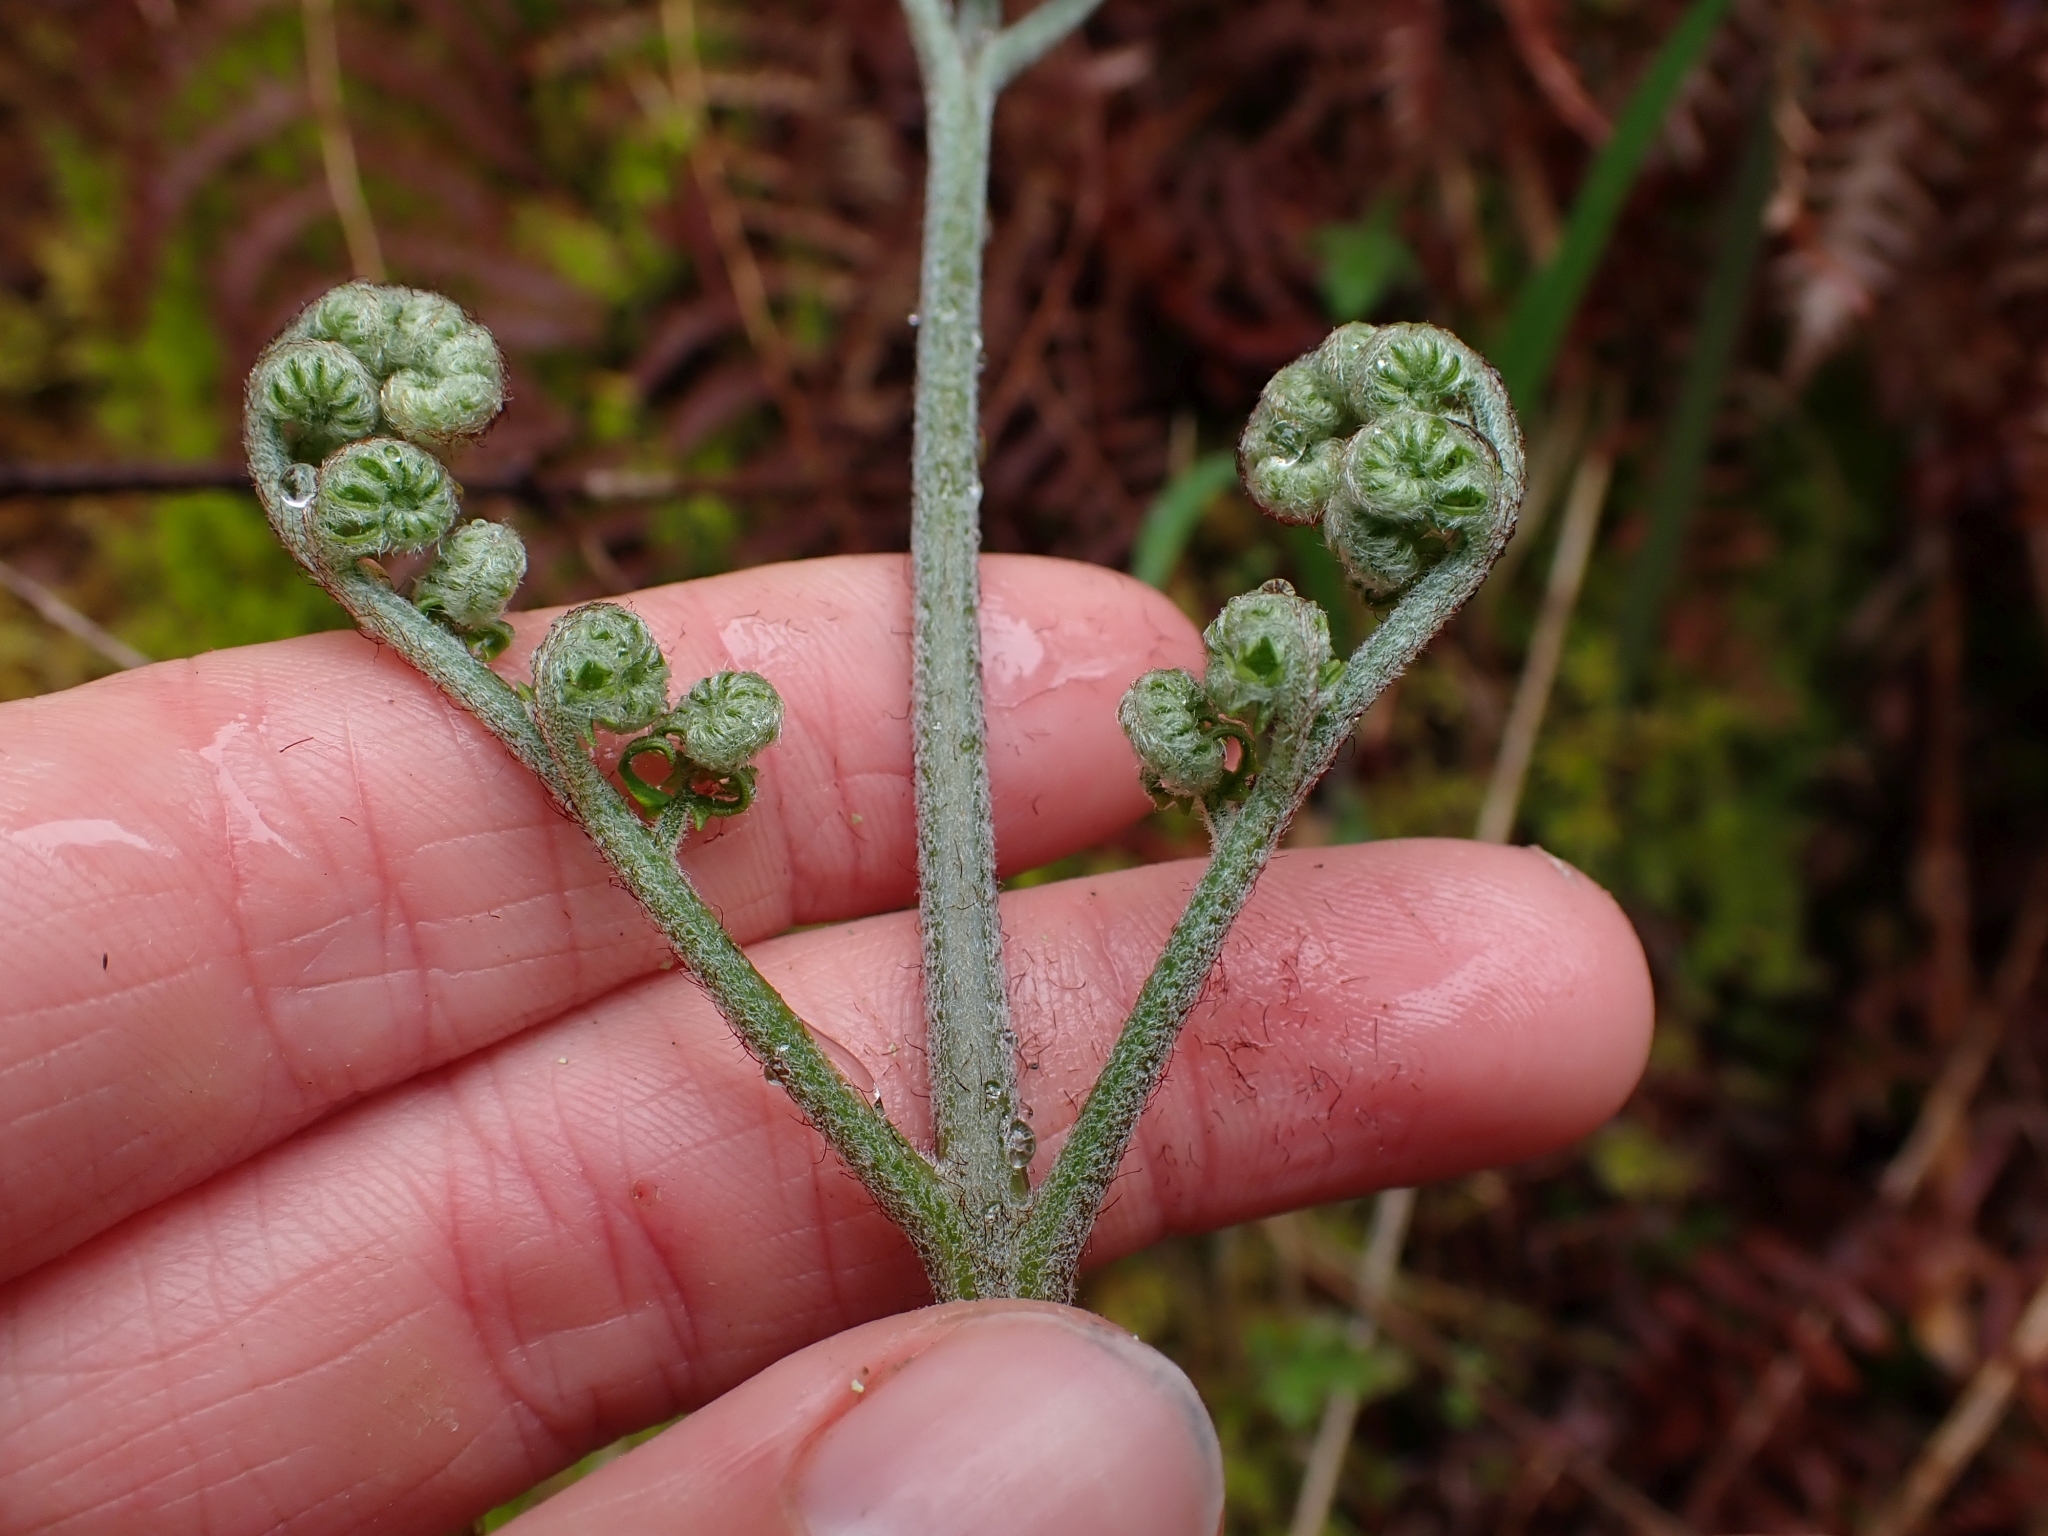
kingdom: Plantae
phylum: Tracheophyta
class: Polypodiopsida
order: Polypodiales
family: Dennstaedtiaceae
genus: Pteridium
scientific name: Pteridium aquilinum
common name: Bracken
